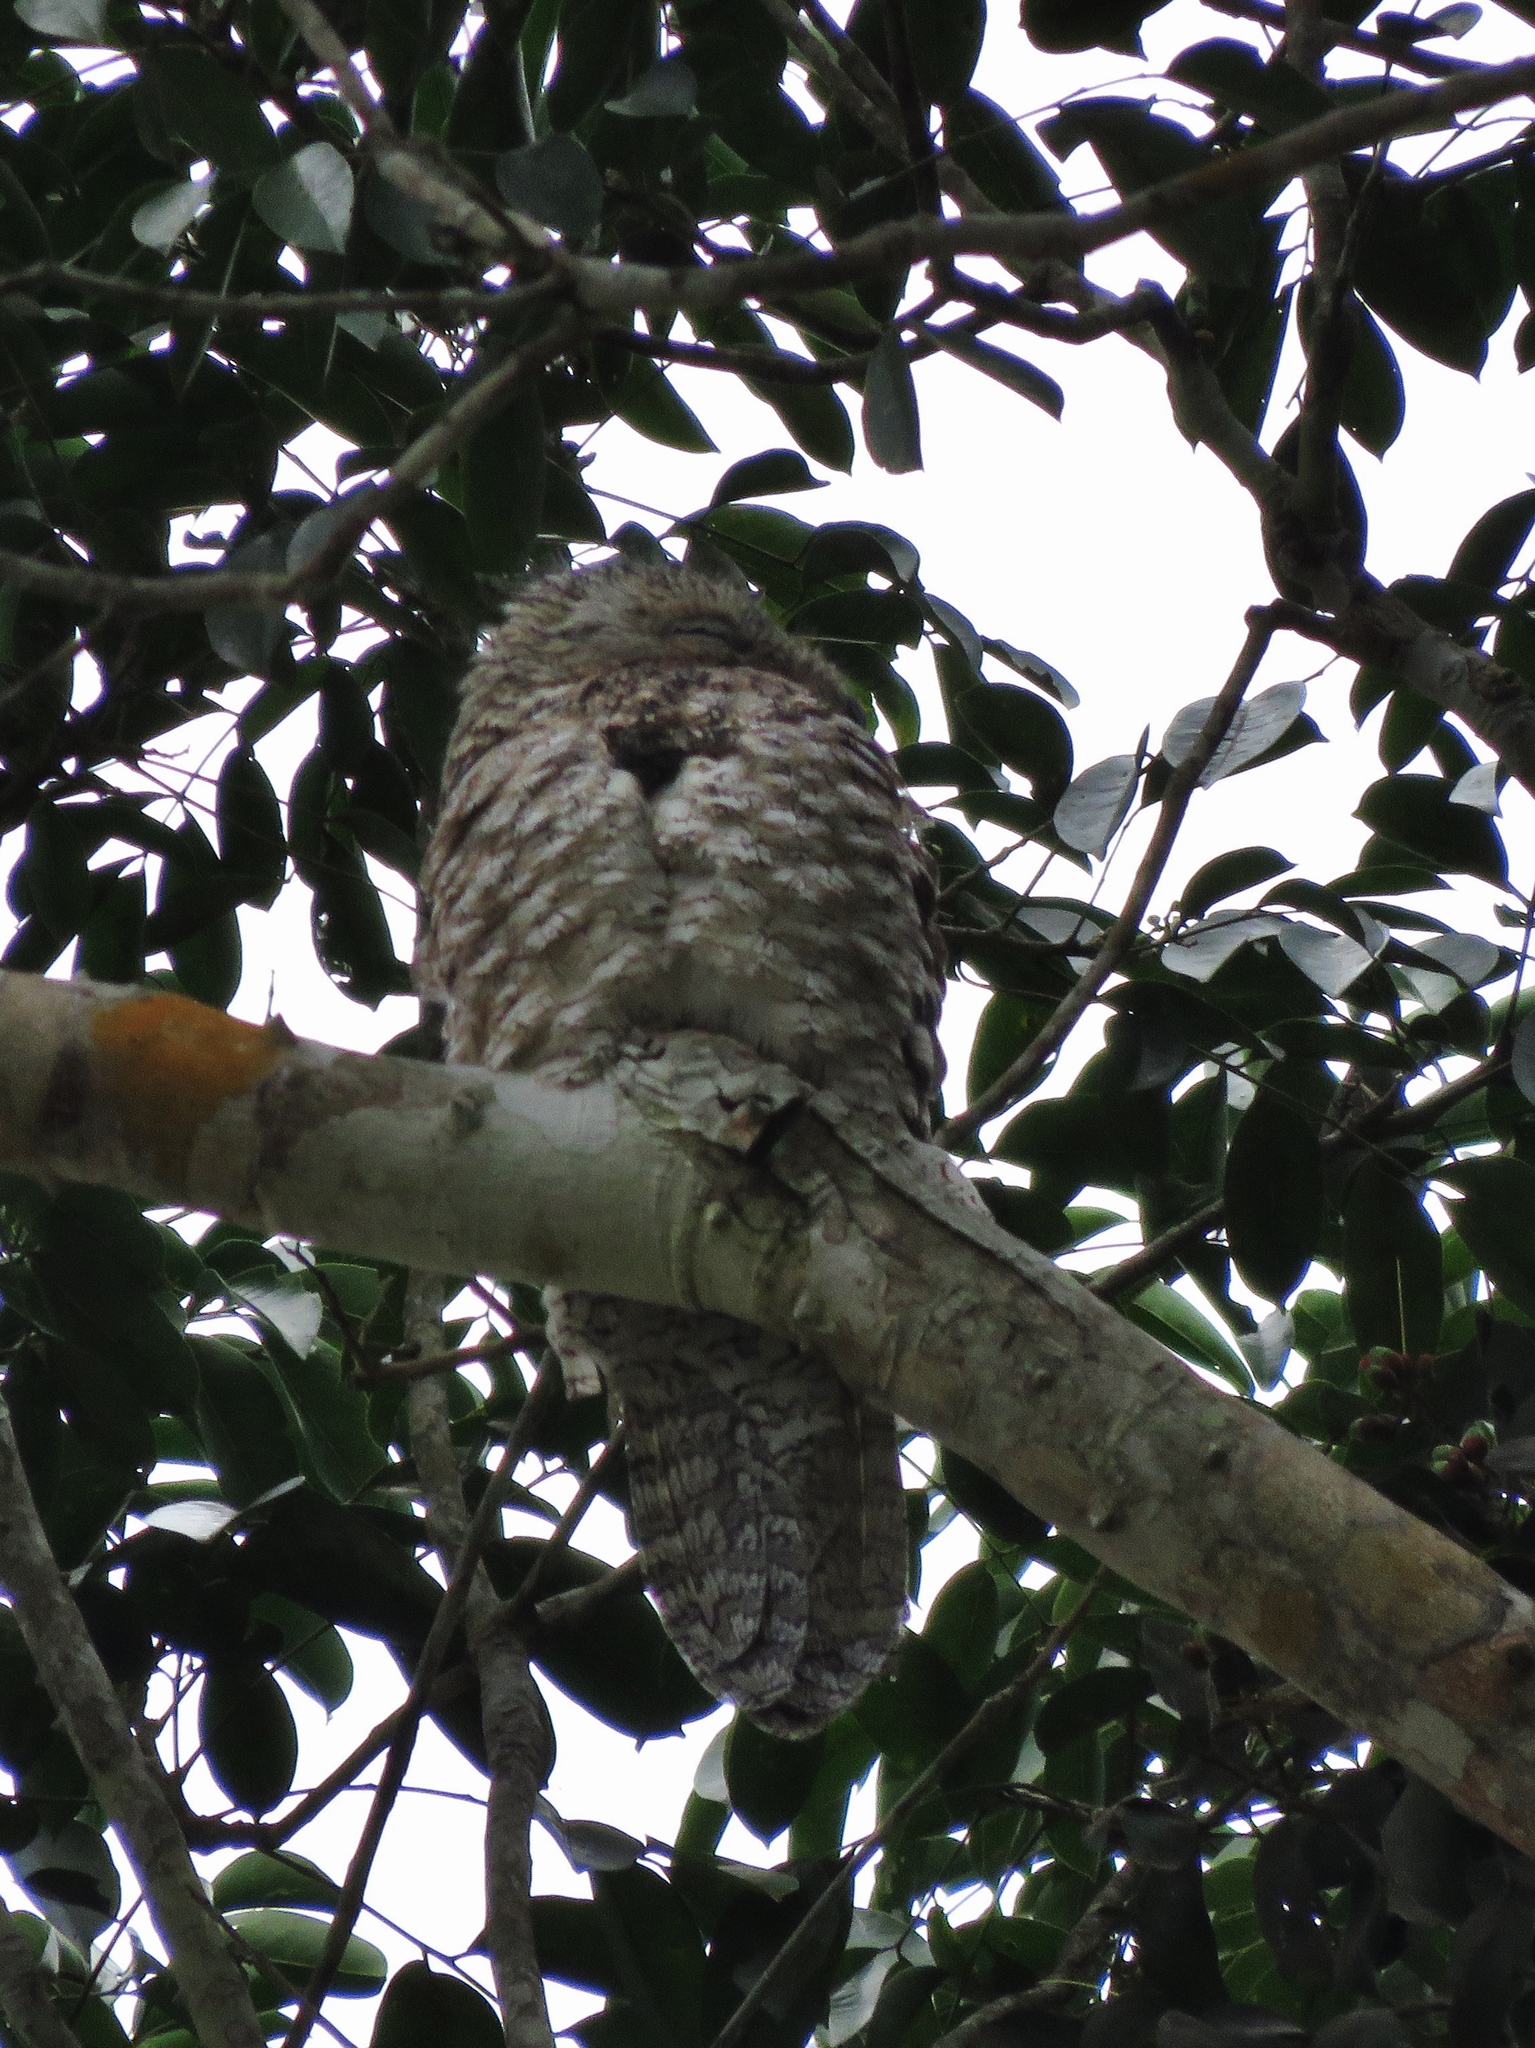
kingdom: Animalia
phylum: Chordata
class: Aves
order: Nyctibiiformes
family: Nyctibiidae
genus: Nyctibius
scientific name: Nyctibius grandis
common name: Great potoo
